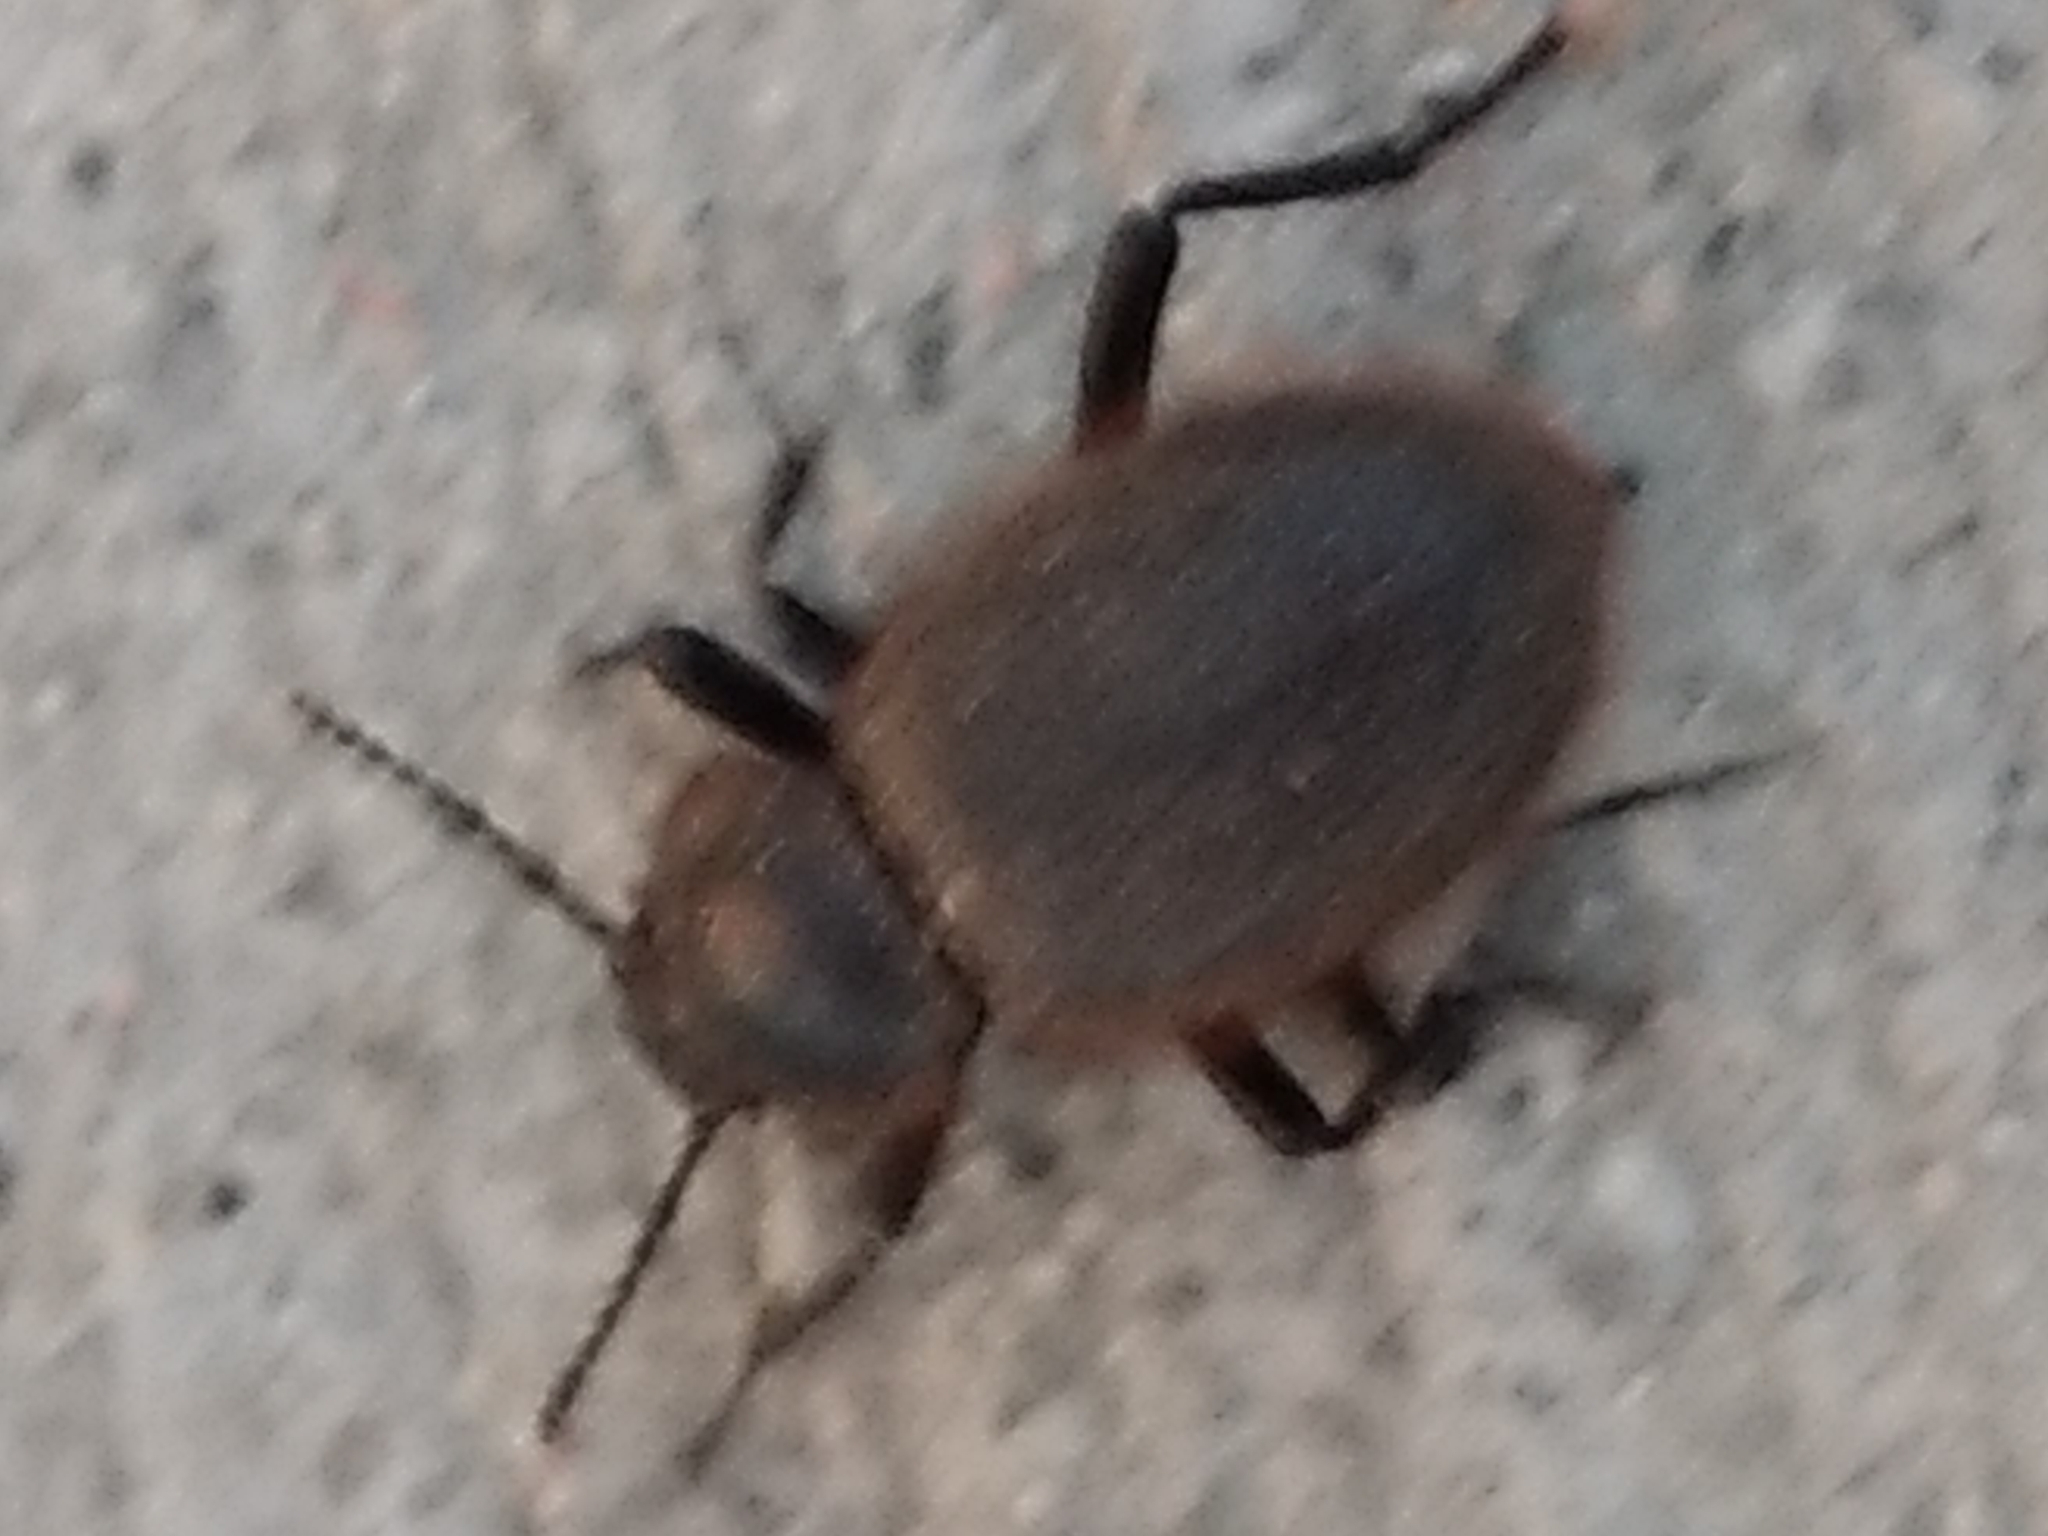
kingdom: Animalia
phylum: Arthropoda
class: Insecta
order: Coleoptera
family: Tenebrionidae
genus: Eleodes
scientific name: Eleodes osculans
